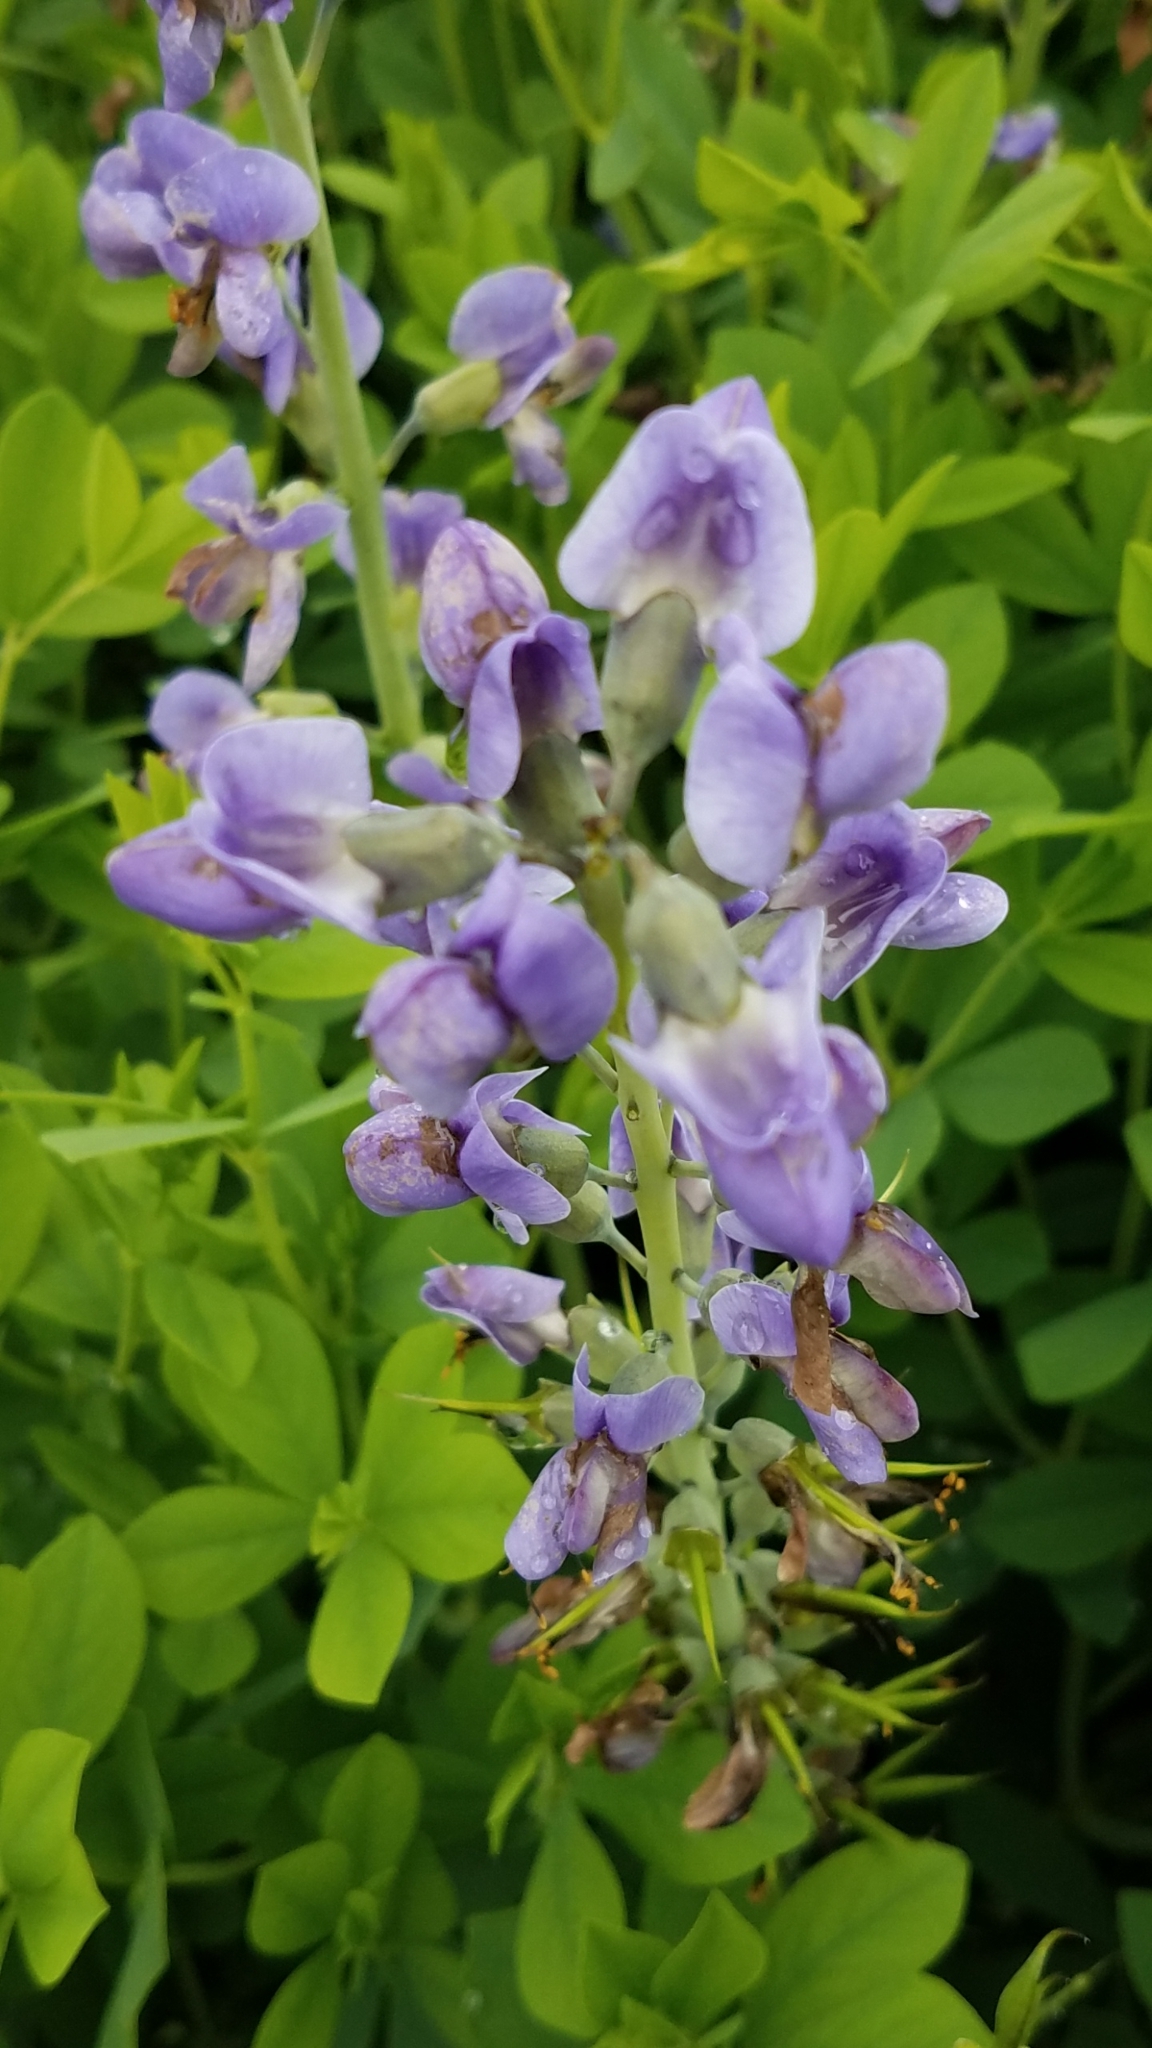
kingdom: Plantae
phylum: Tracheophyta
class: Magnoliopsida
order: Fabales
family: Fabaceae
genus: Baptisia
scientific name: Baptisia australis
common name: Blue false indigo
